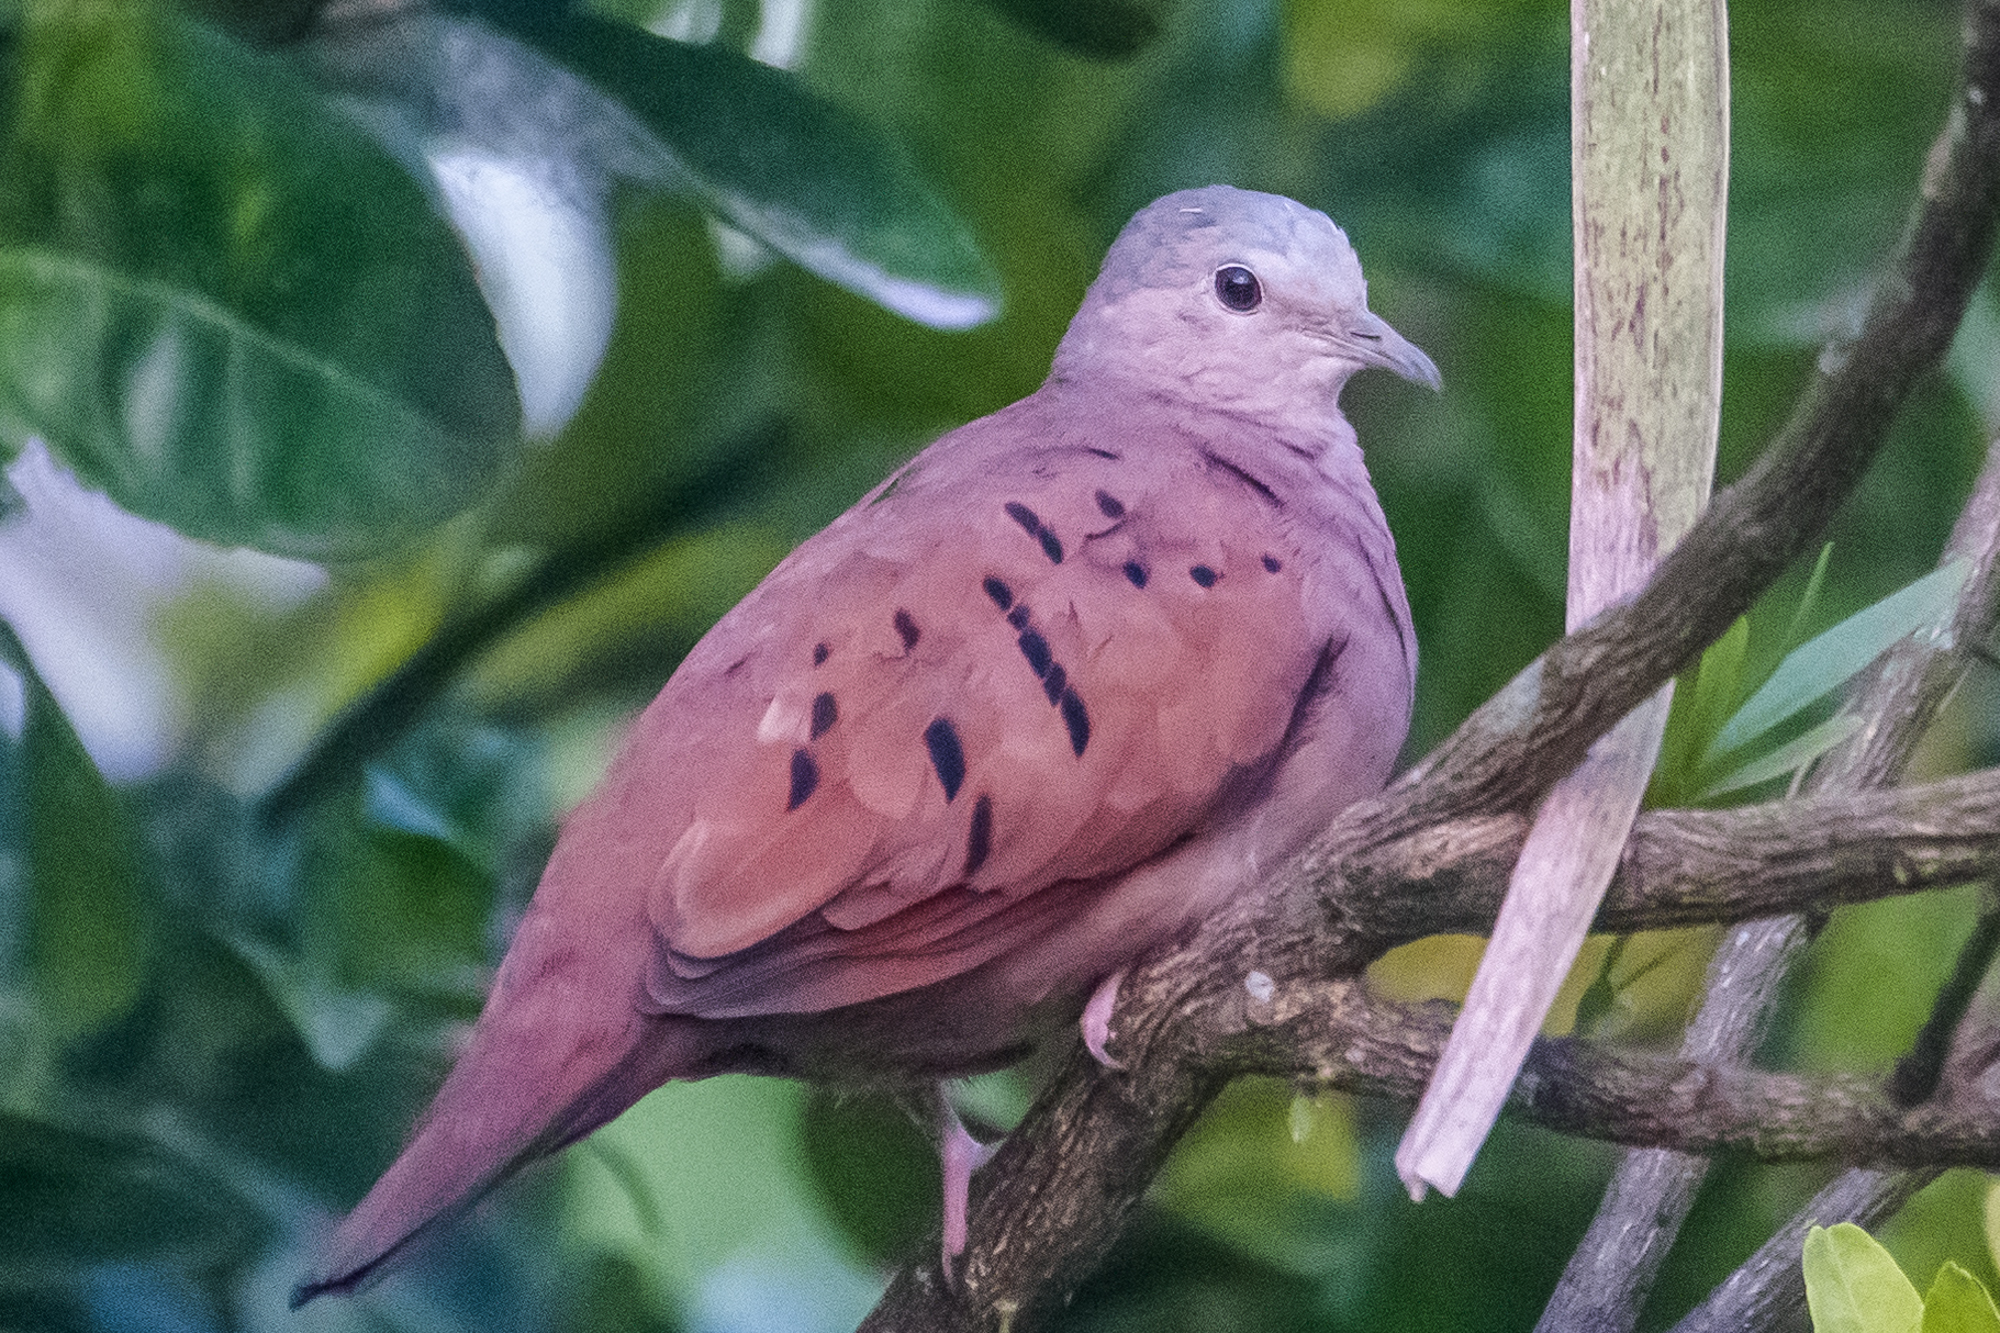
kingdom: Animalia
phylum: Chordata
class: Aves
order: Columbiformes
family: Columbidae
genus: Columbina
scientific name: Columbina talpacoti
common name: Ruddy ground dove
